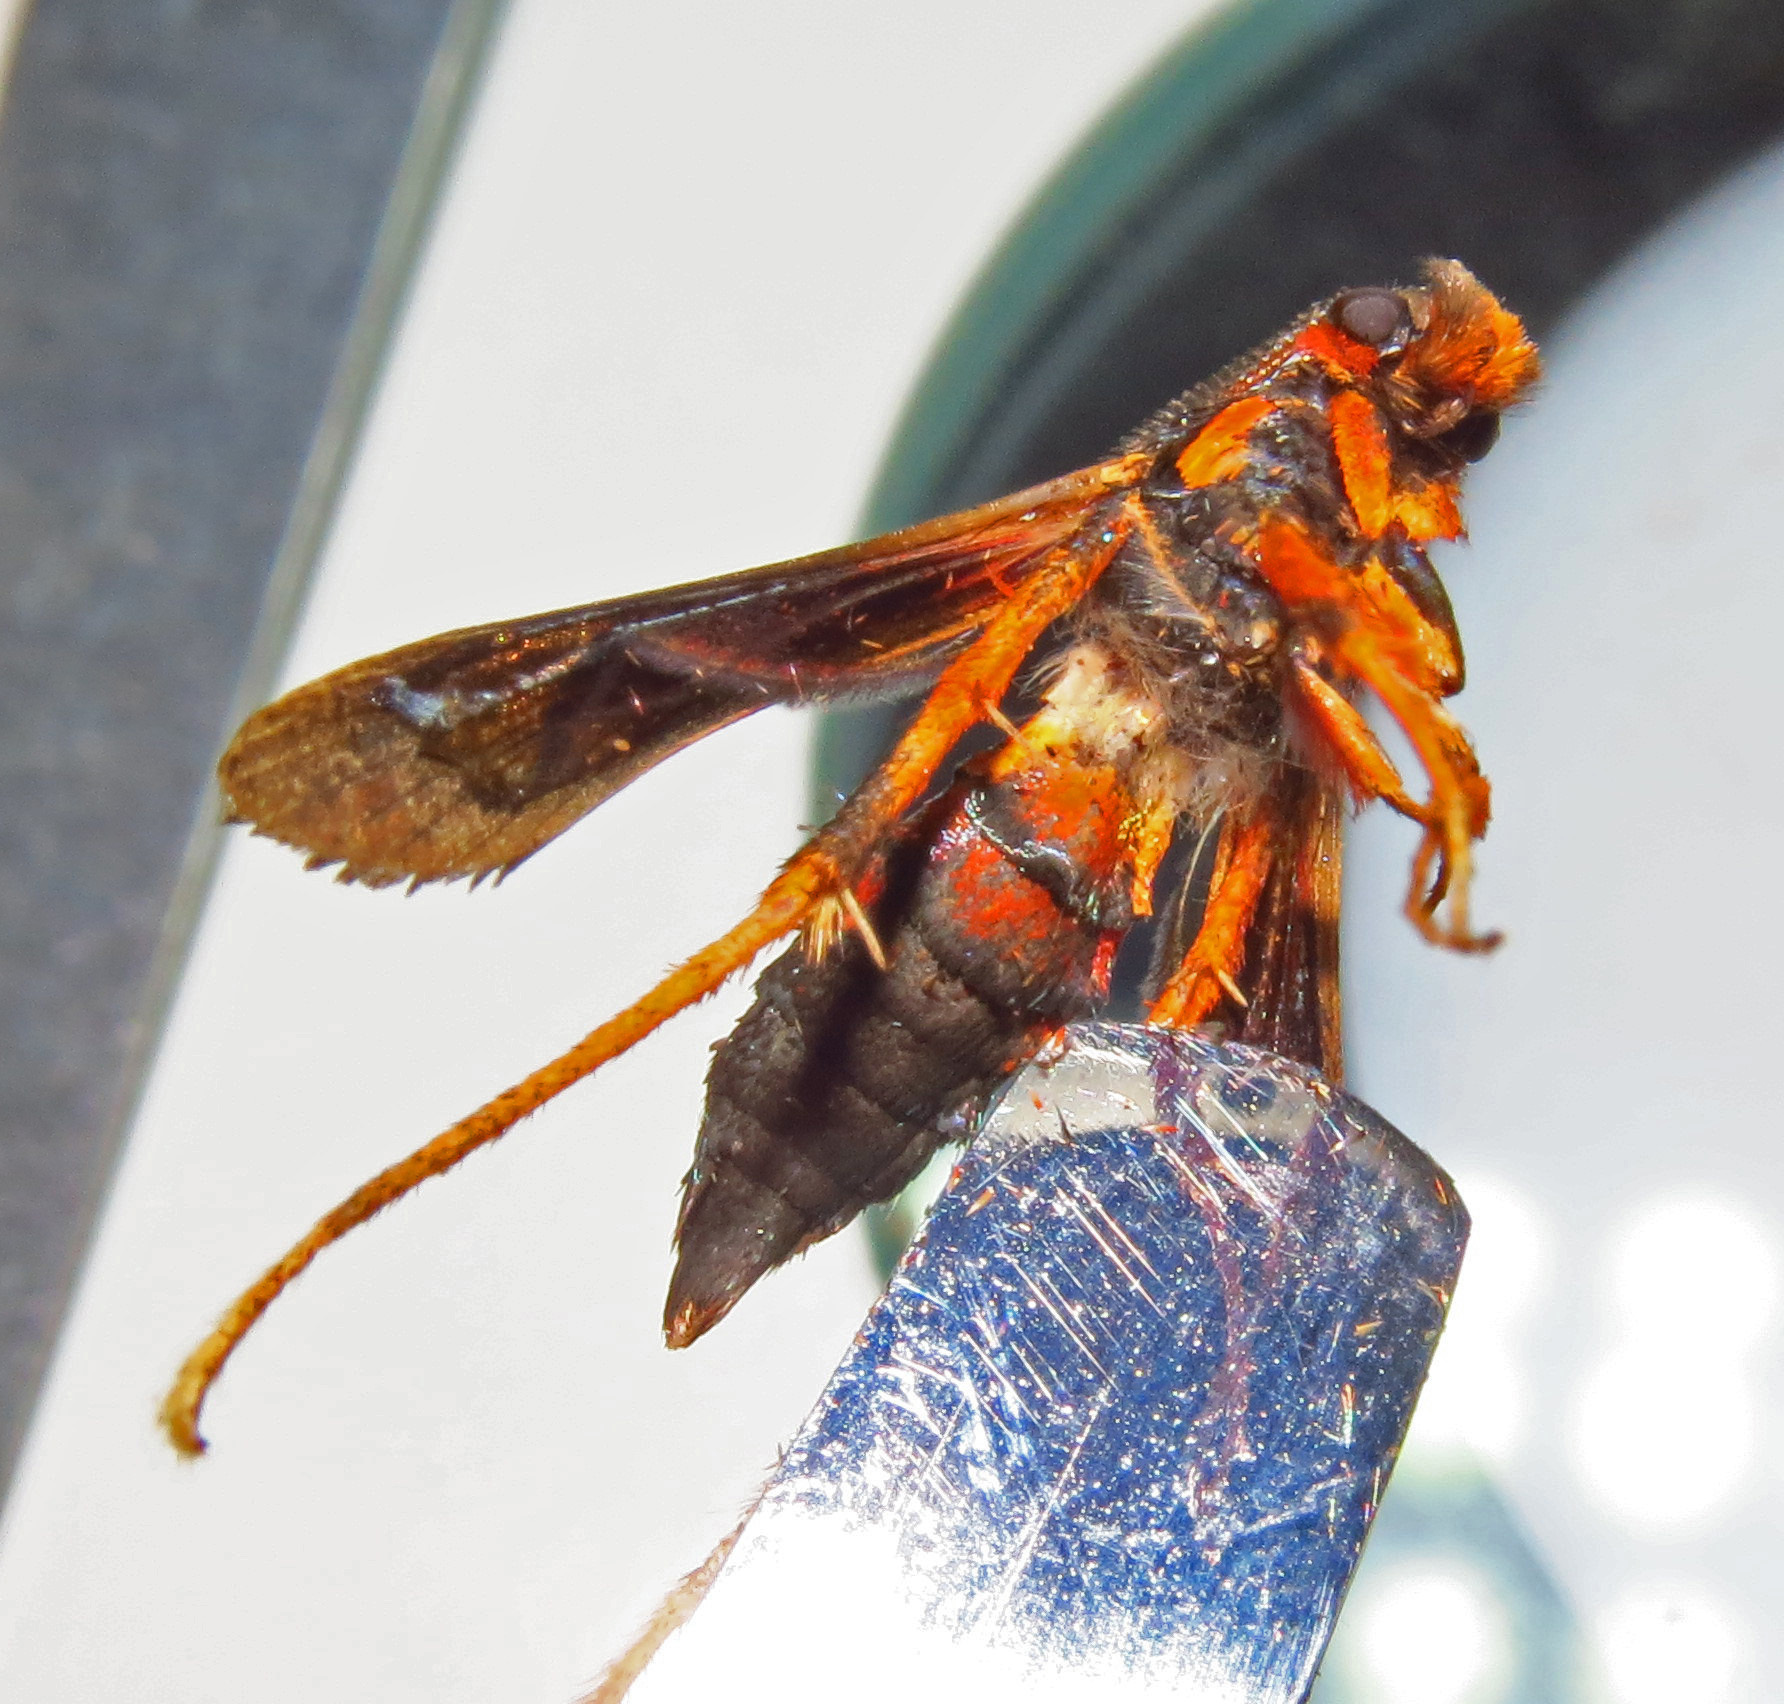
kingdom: Animalia
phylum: Arthropoda
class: Insecta
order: Lepidoptera
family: Sesiidae
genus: Podosesia
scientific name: Podosesia syringae
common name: Lilac borer moth
